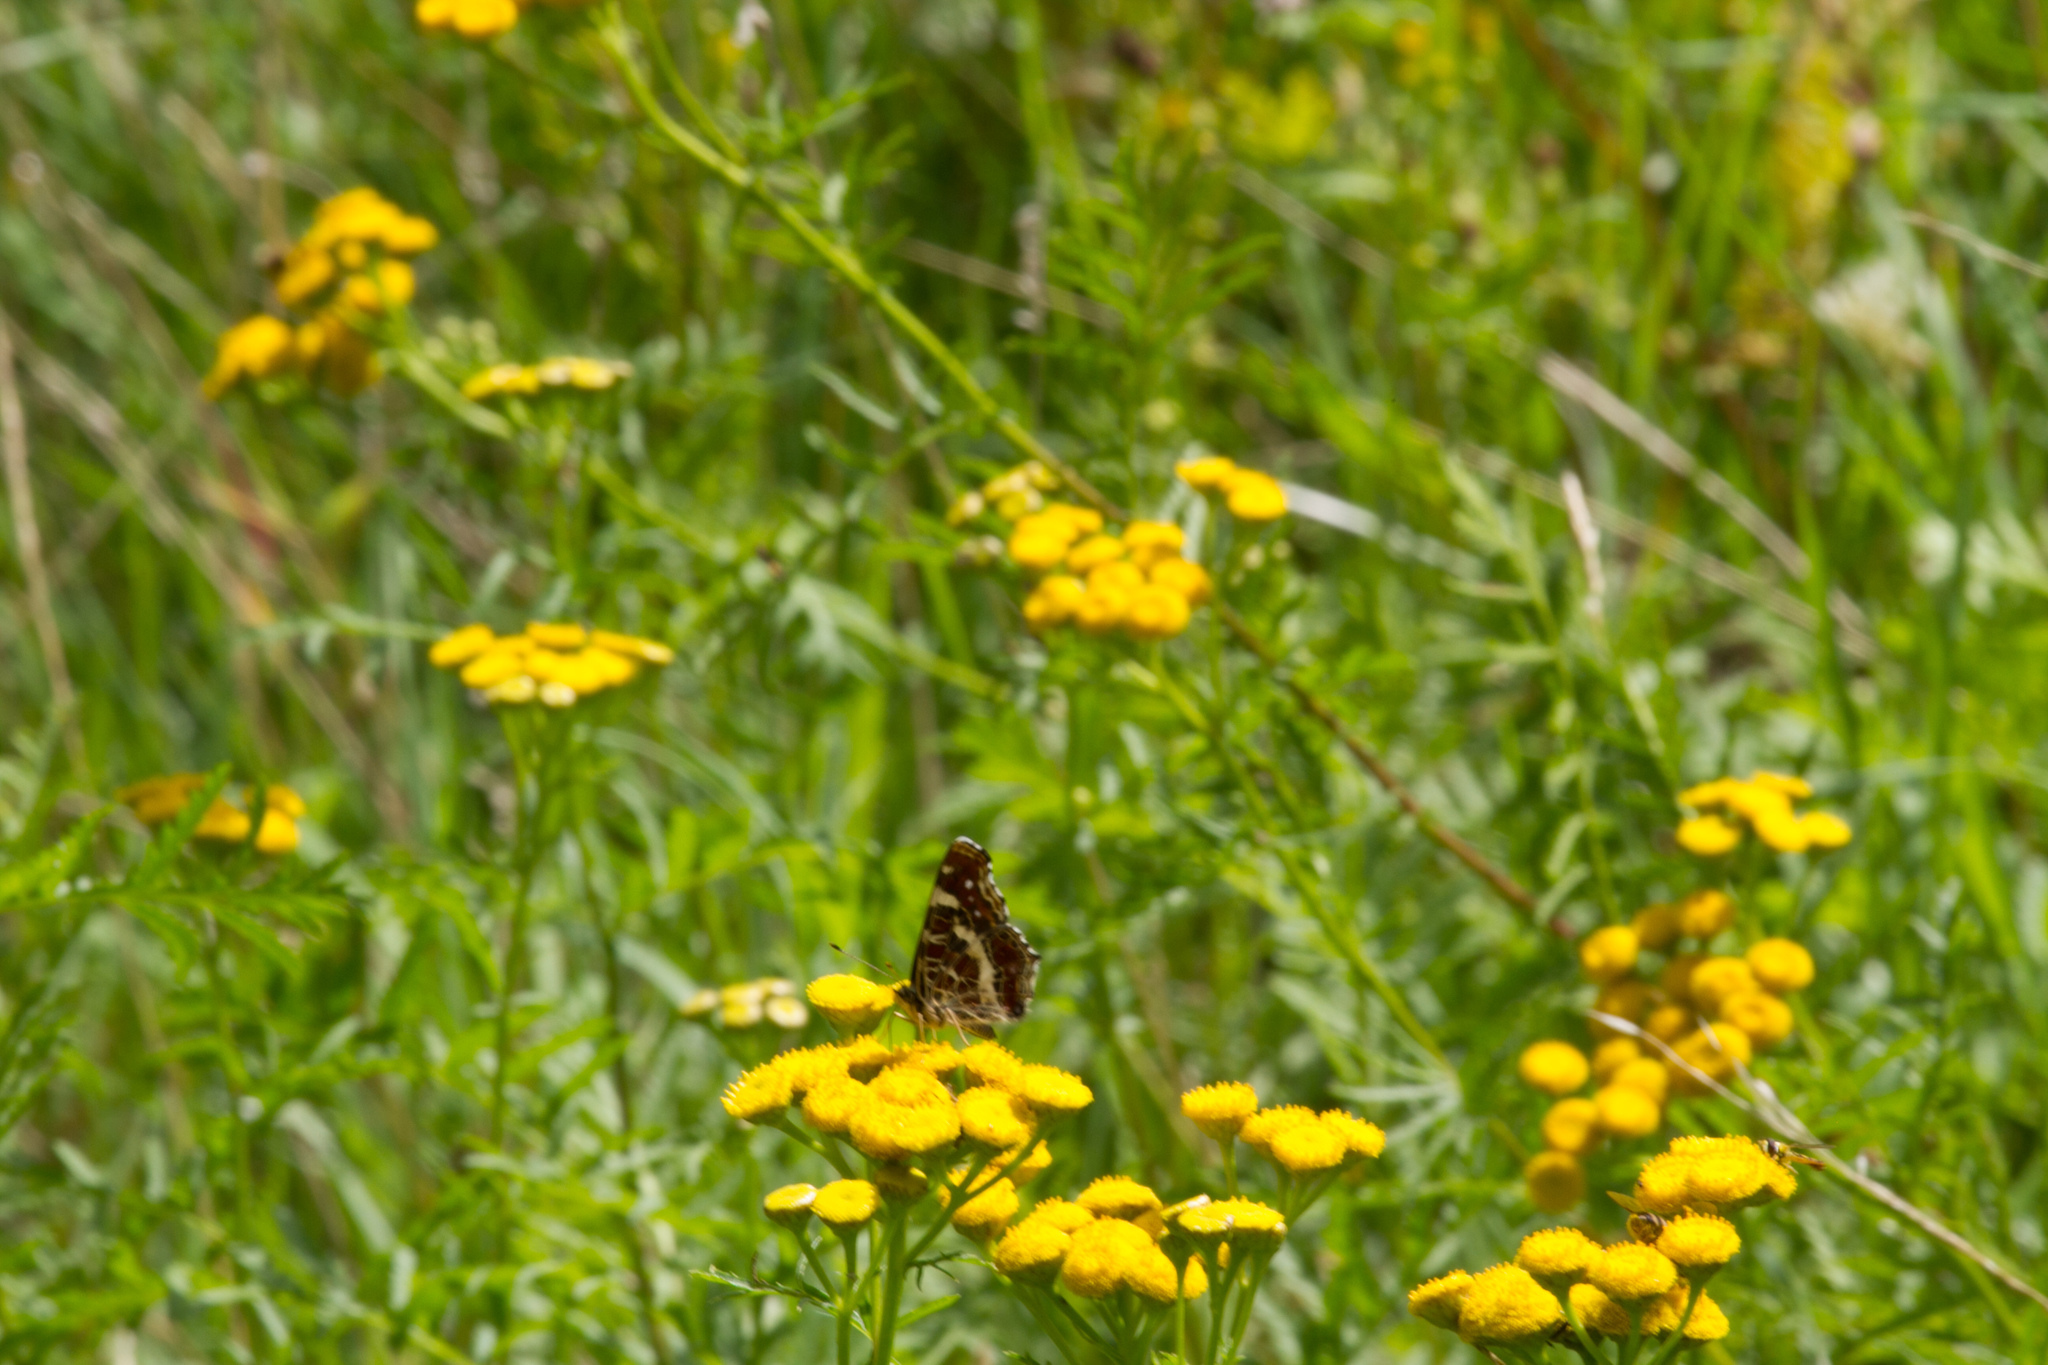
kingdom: Animalia
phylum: Arthropoda
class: Insecta
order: Lepidoptera
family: Nymphalidae
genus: Araschnia
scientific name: Araschnia levana
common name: Map butterfly
